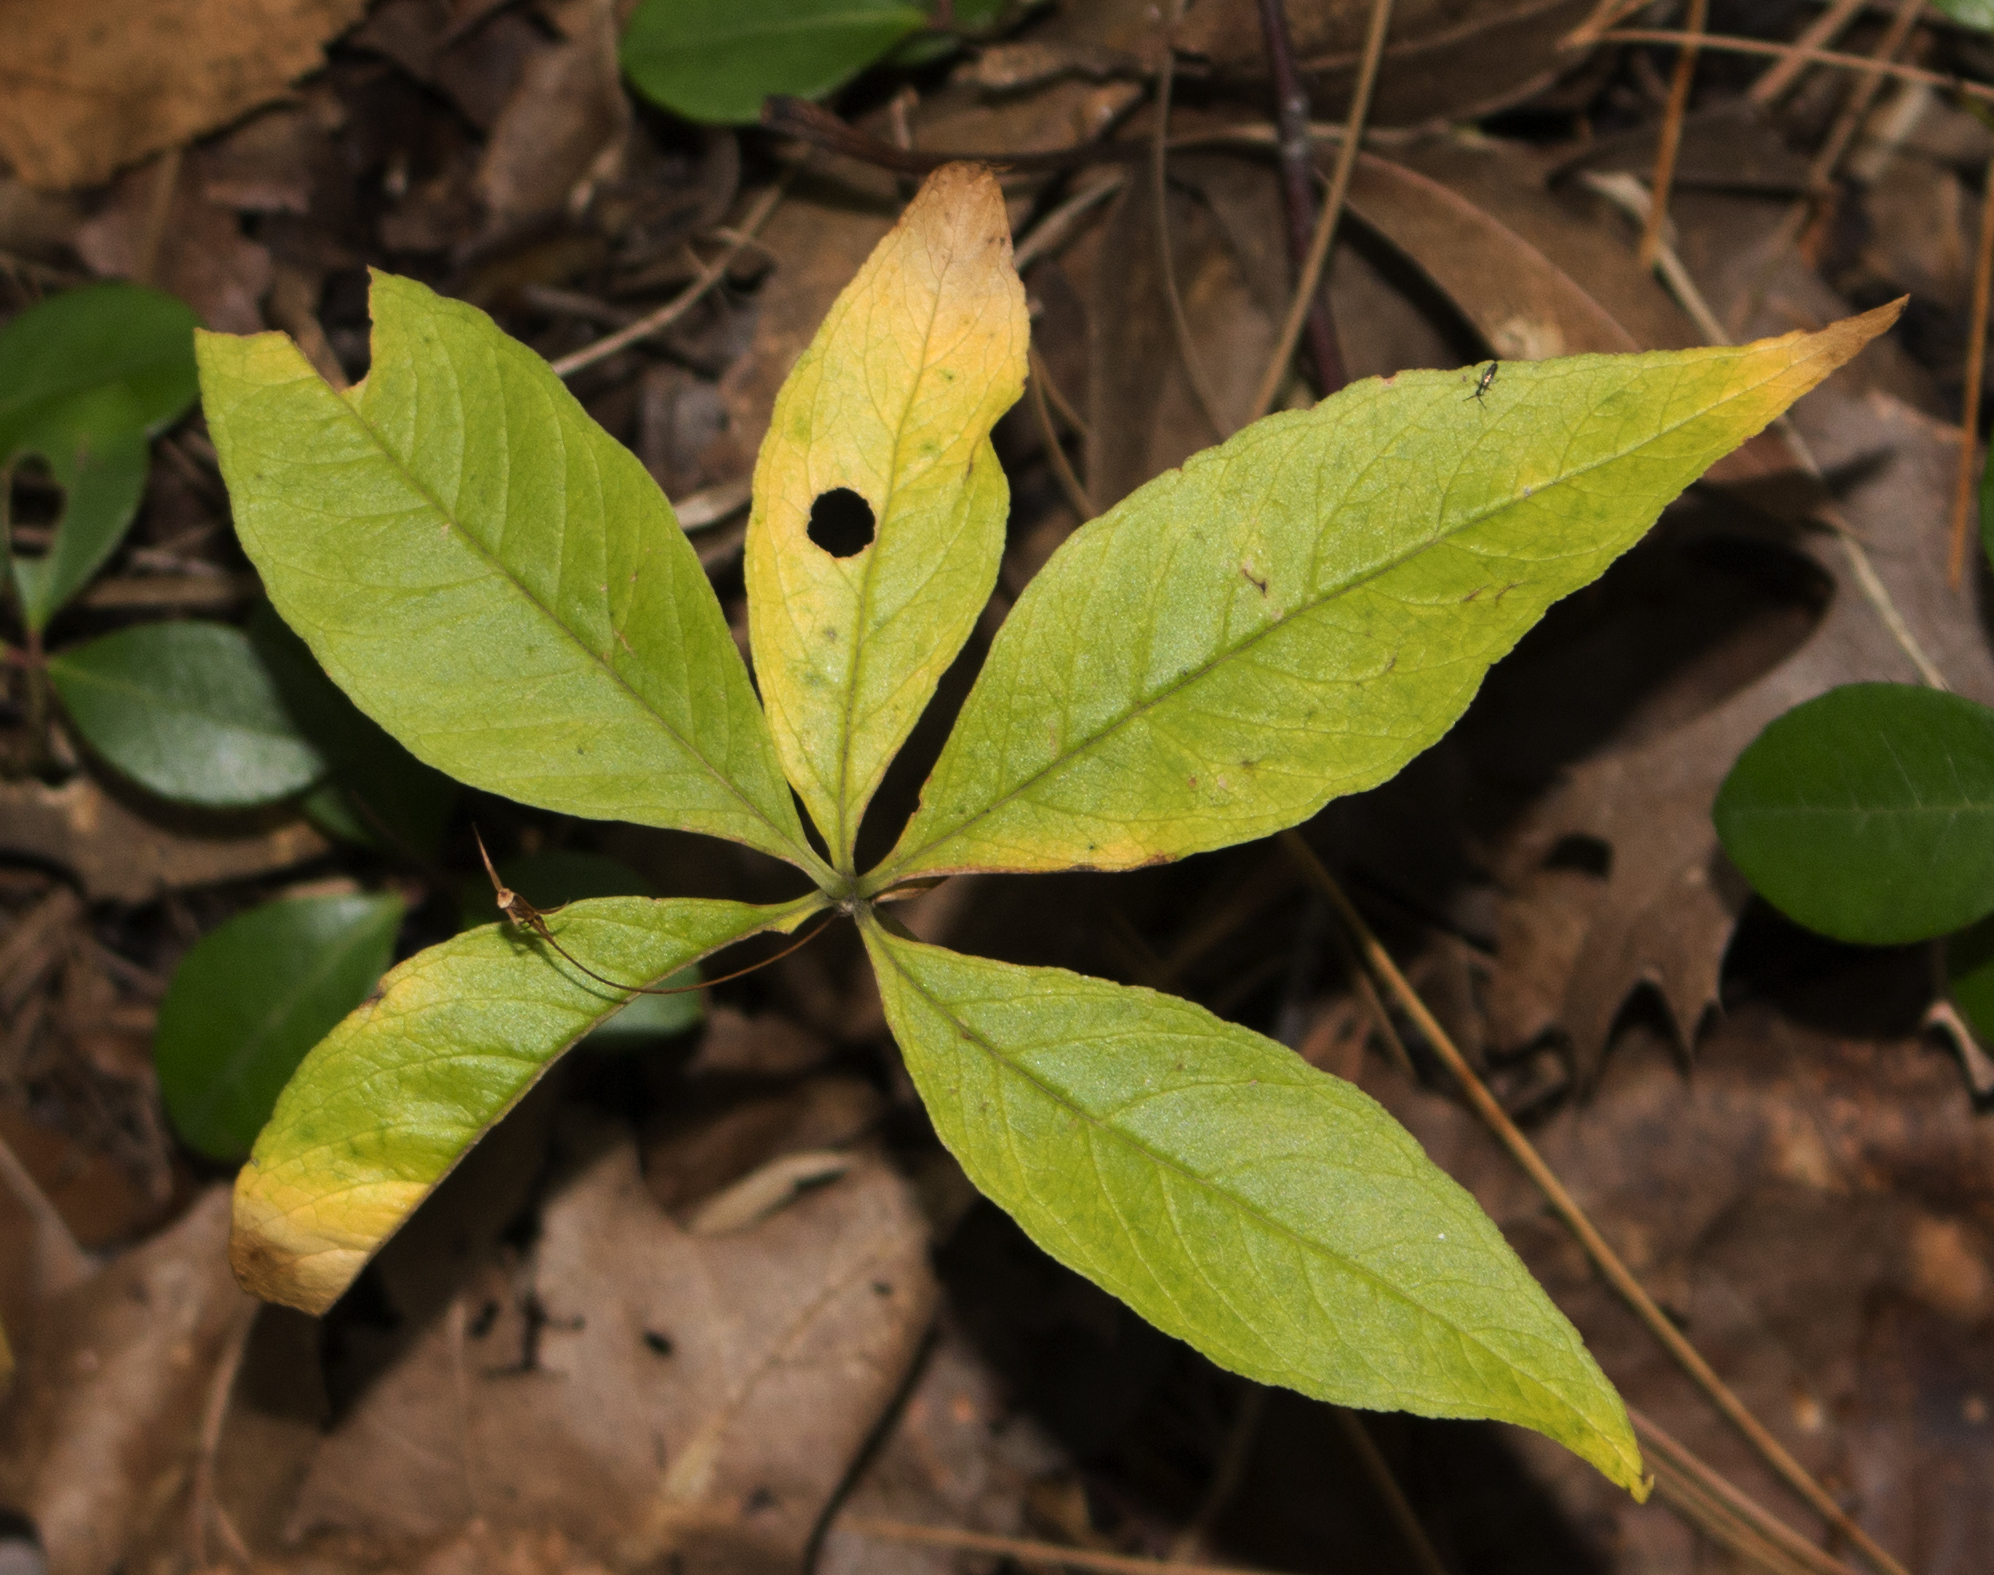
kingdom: Plantae
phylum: Tracheophyta
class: Magnoliopsida
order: Ericales
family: Primulaceae
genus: Lysimachia
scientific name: Lysimachia borealis
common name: American starflower
